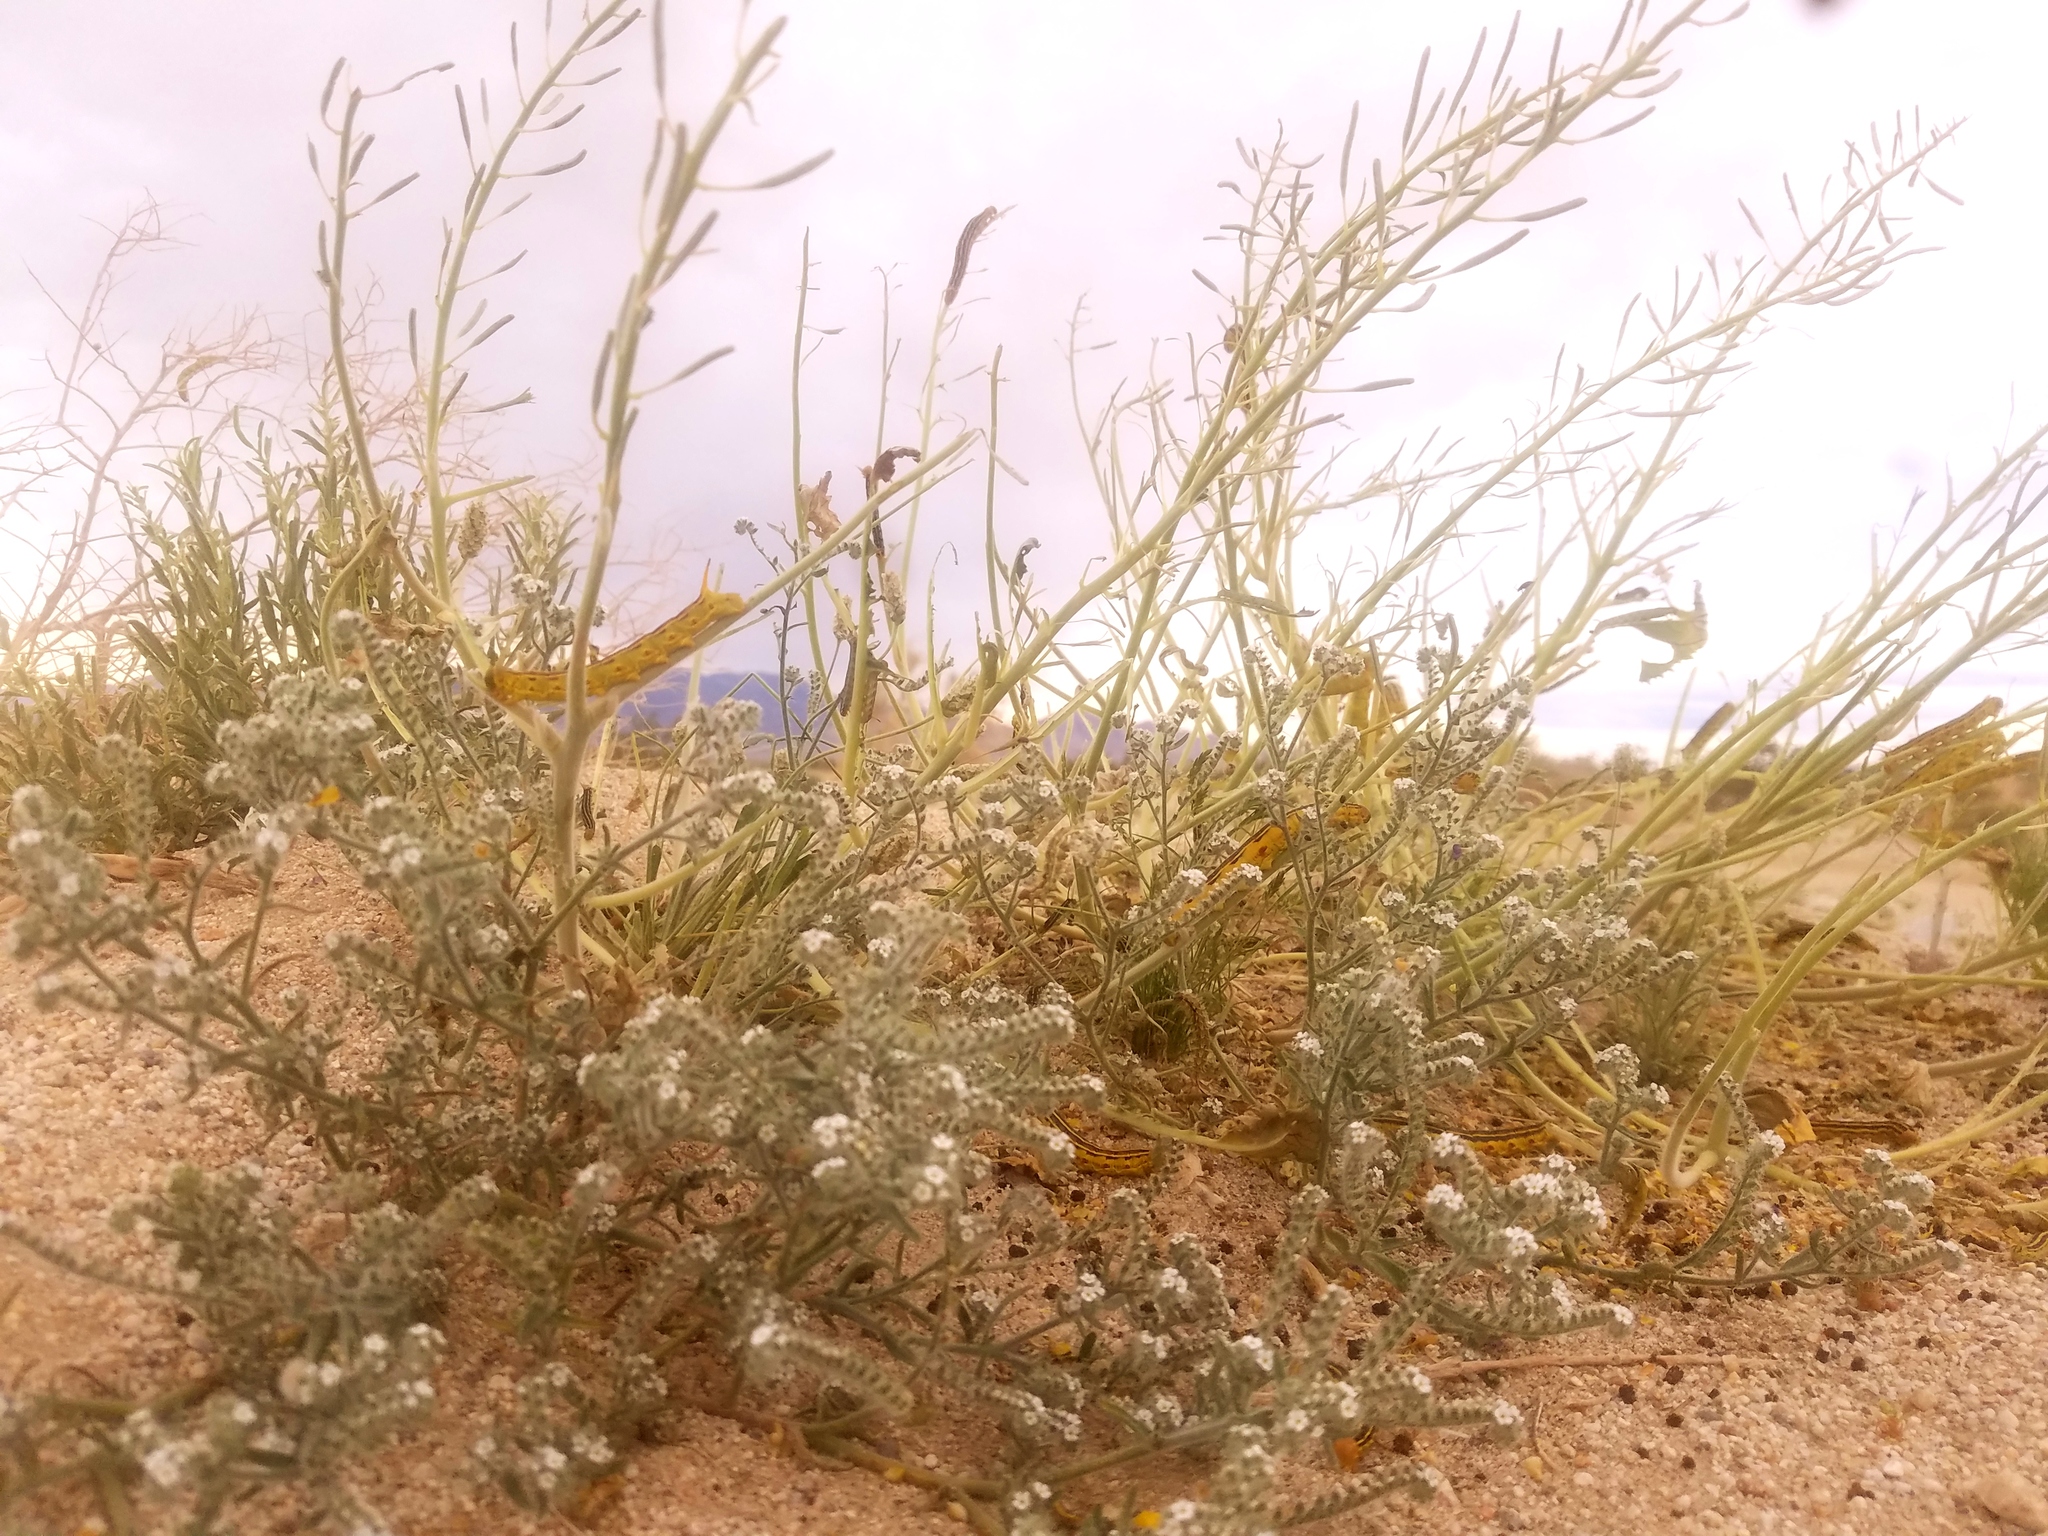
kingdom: Plantae
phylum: Tracheophyta
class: Magnoliopsida
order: Myrtales
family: Onagraceae
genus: Chylismia
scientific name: Chylismia claviformis
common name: Browneyes
